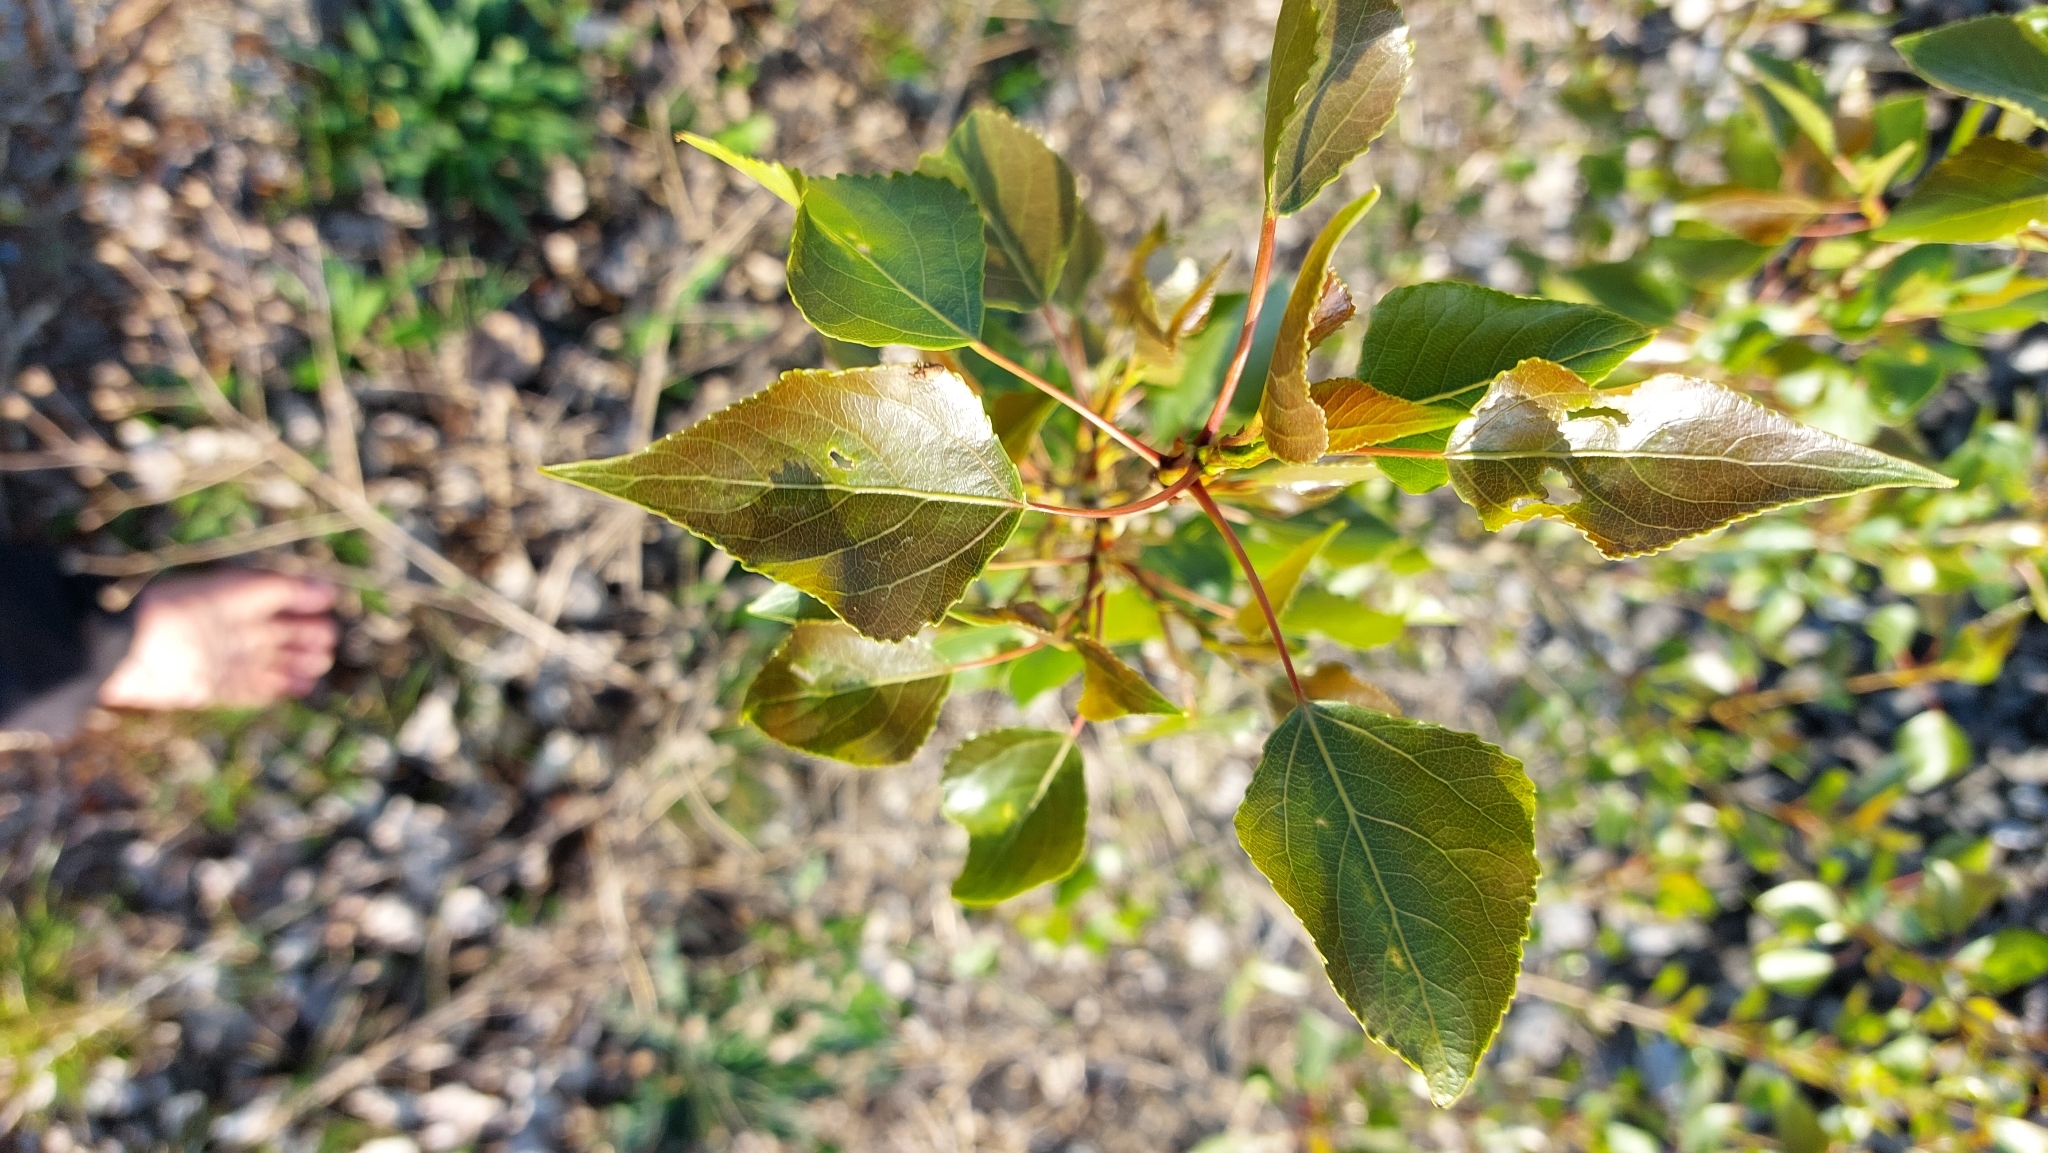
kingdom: Plantae
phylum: Tracheophyta
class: Magnoliopsida
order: Malpighiales
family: Salicaceae
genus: Populus
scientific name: Populus nigra
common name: Black poplar
